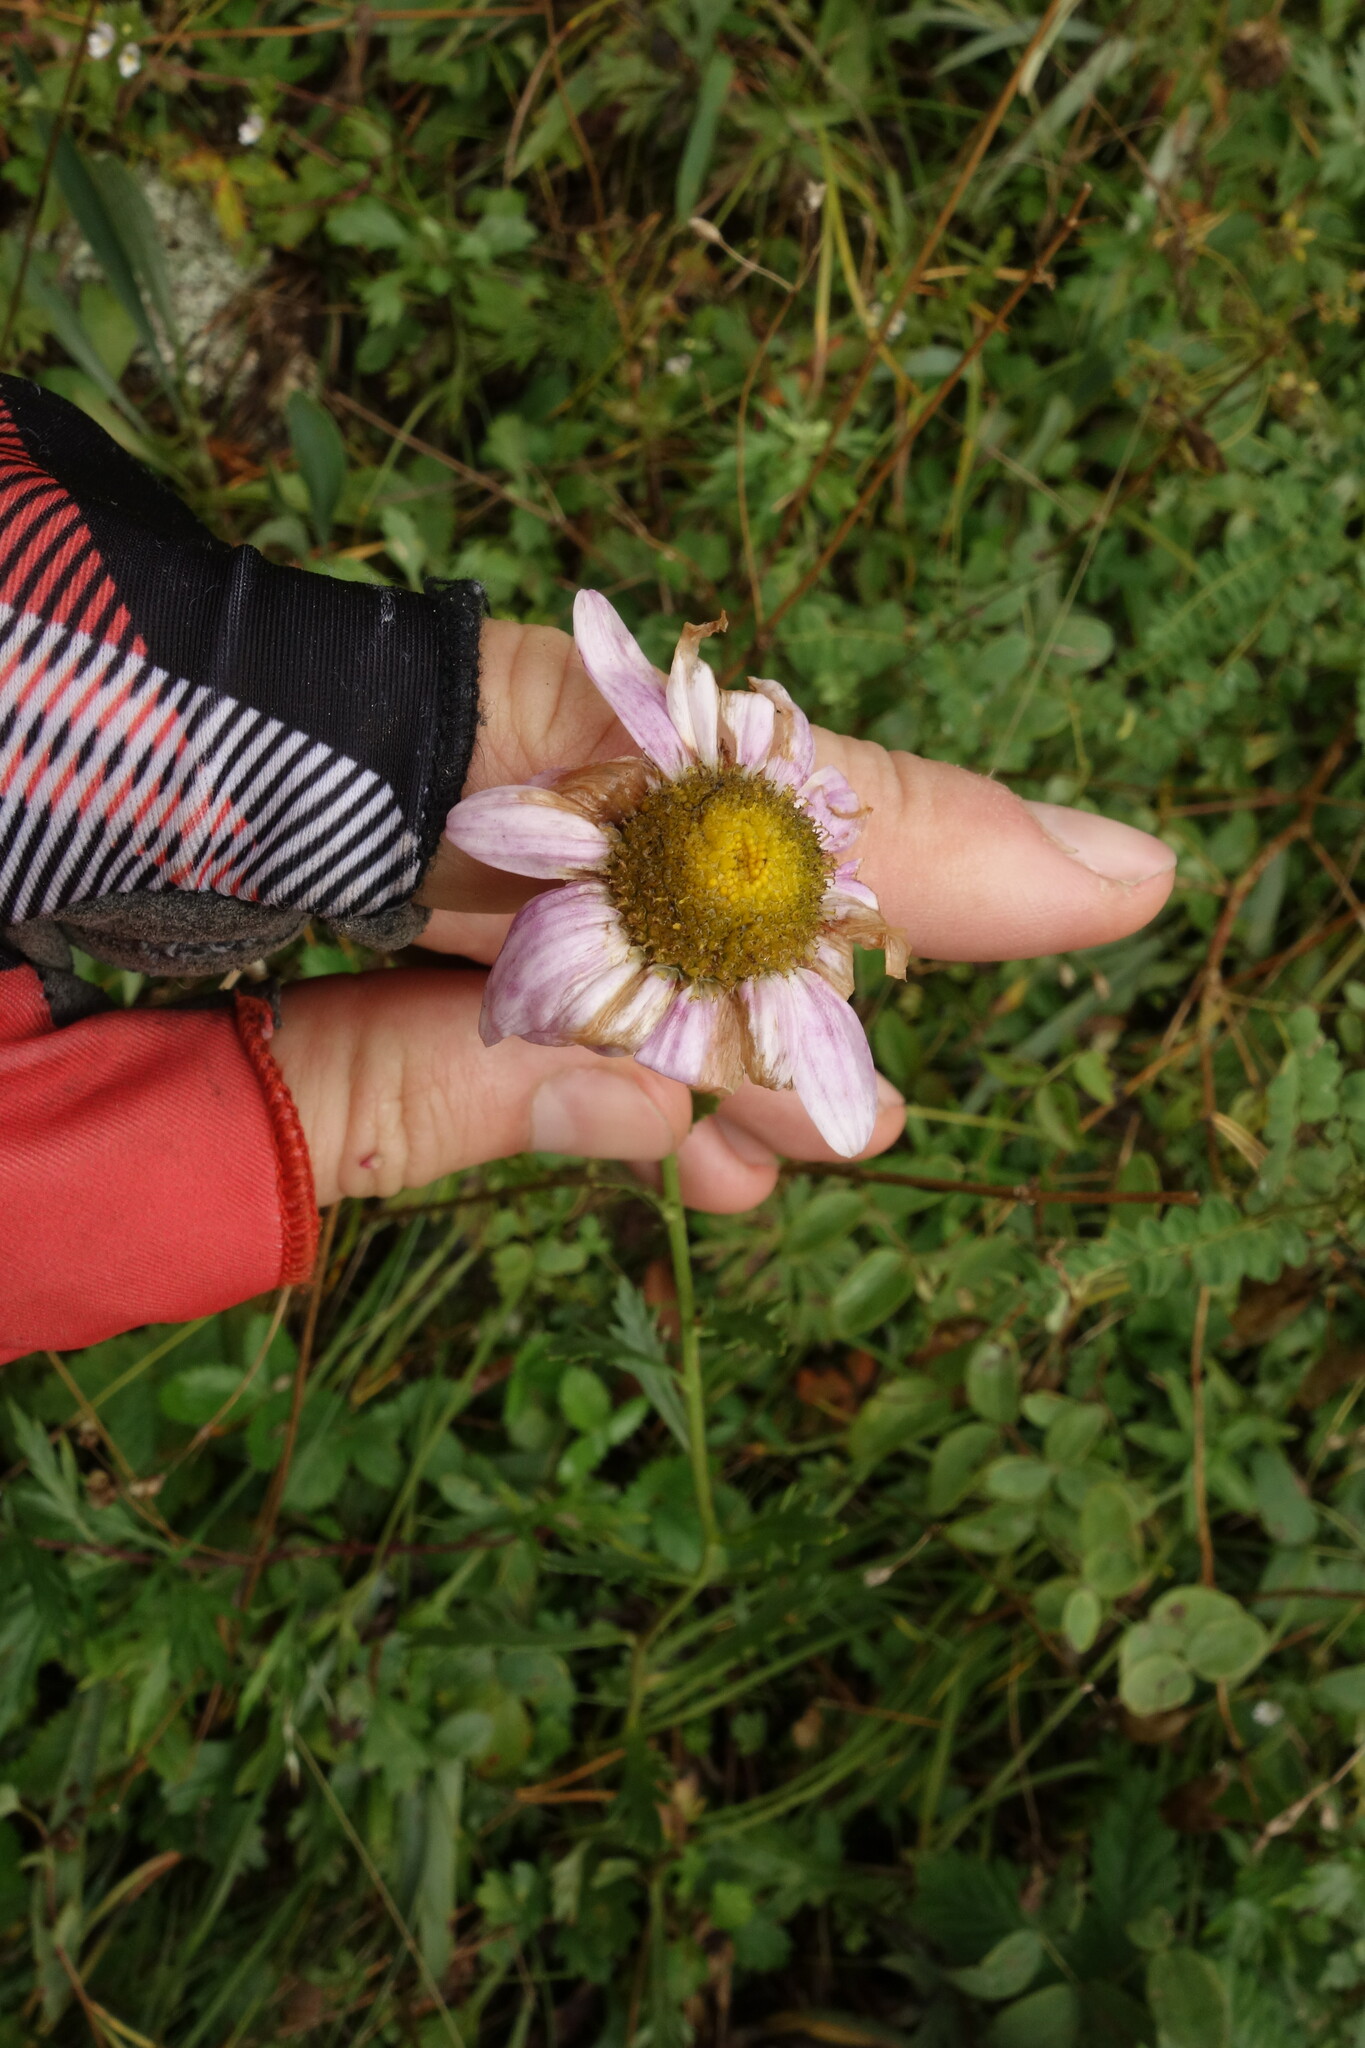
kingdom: Plantae
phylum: Tracheophyta
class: Magnoliopsida
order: Asterales
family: Asteraceae
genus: Chrysanthemum
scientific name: Chrysanthemum zawadzkii
